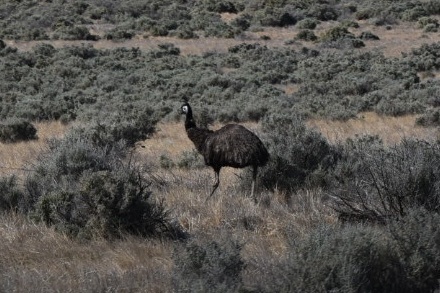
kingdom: Animalia
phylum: Chordata
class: Aves
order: Casuariiformes
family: Dromaiidae
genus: Dromaius
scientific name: Dromaius novaehollandiae
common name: Emu
